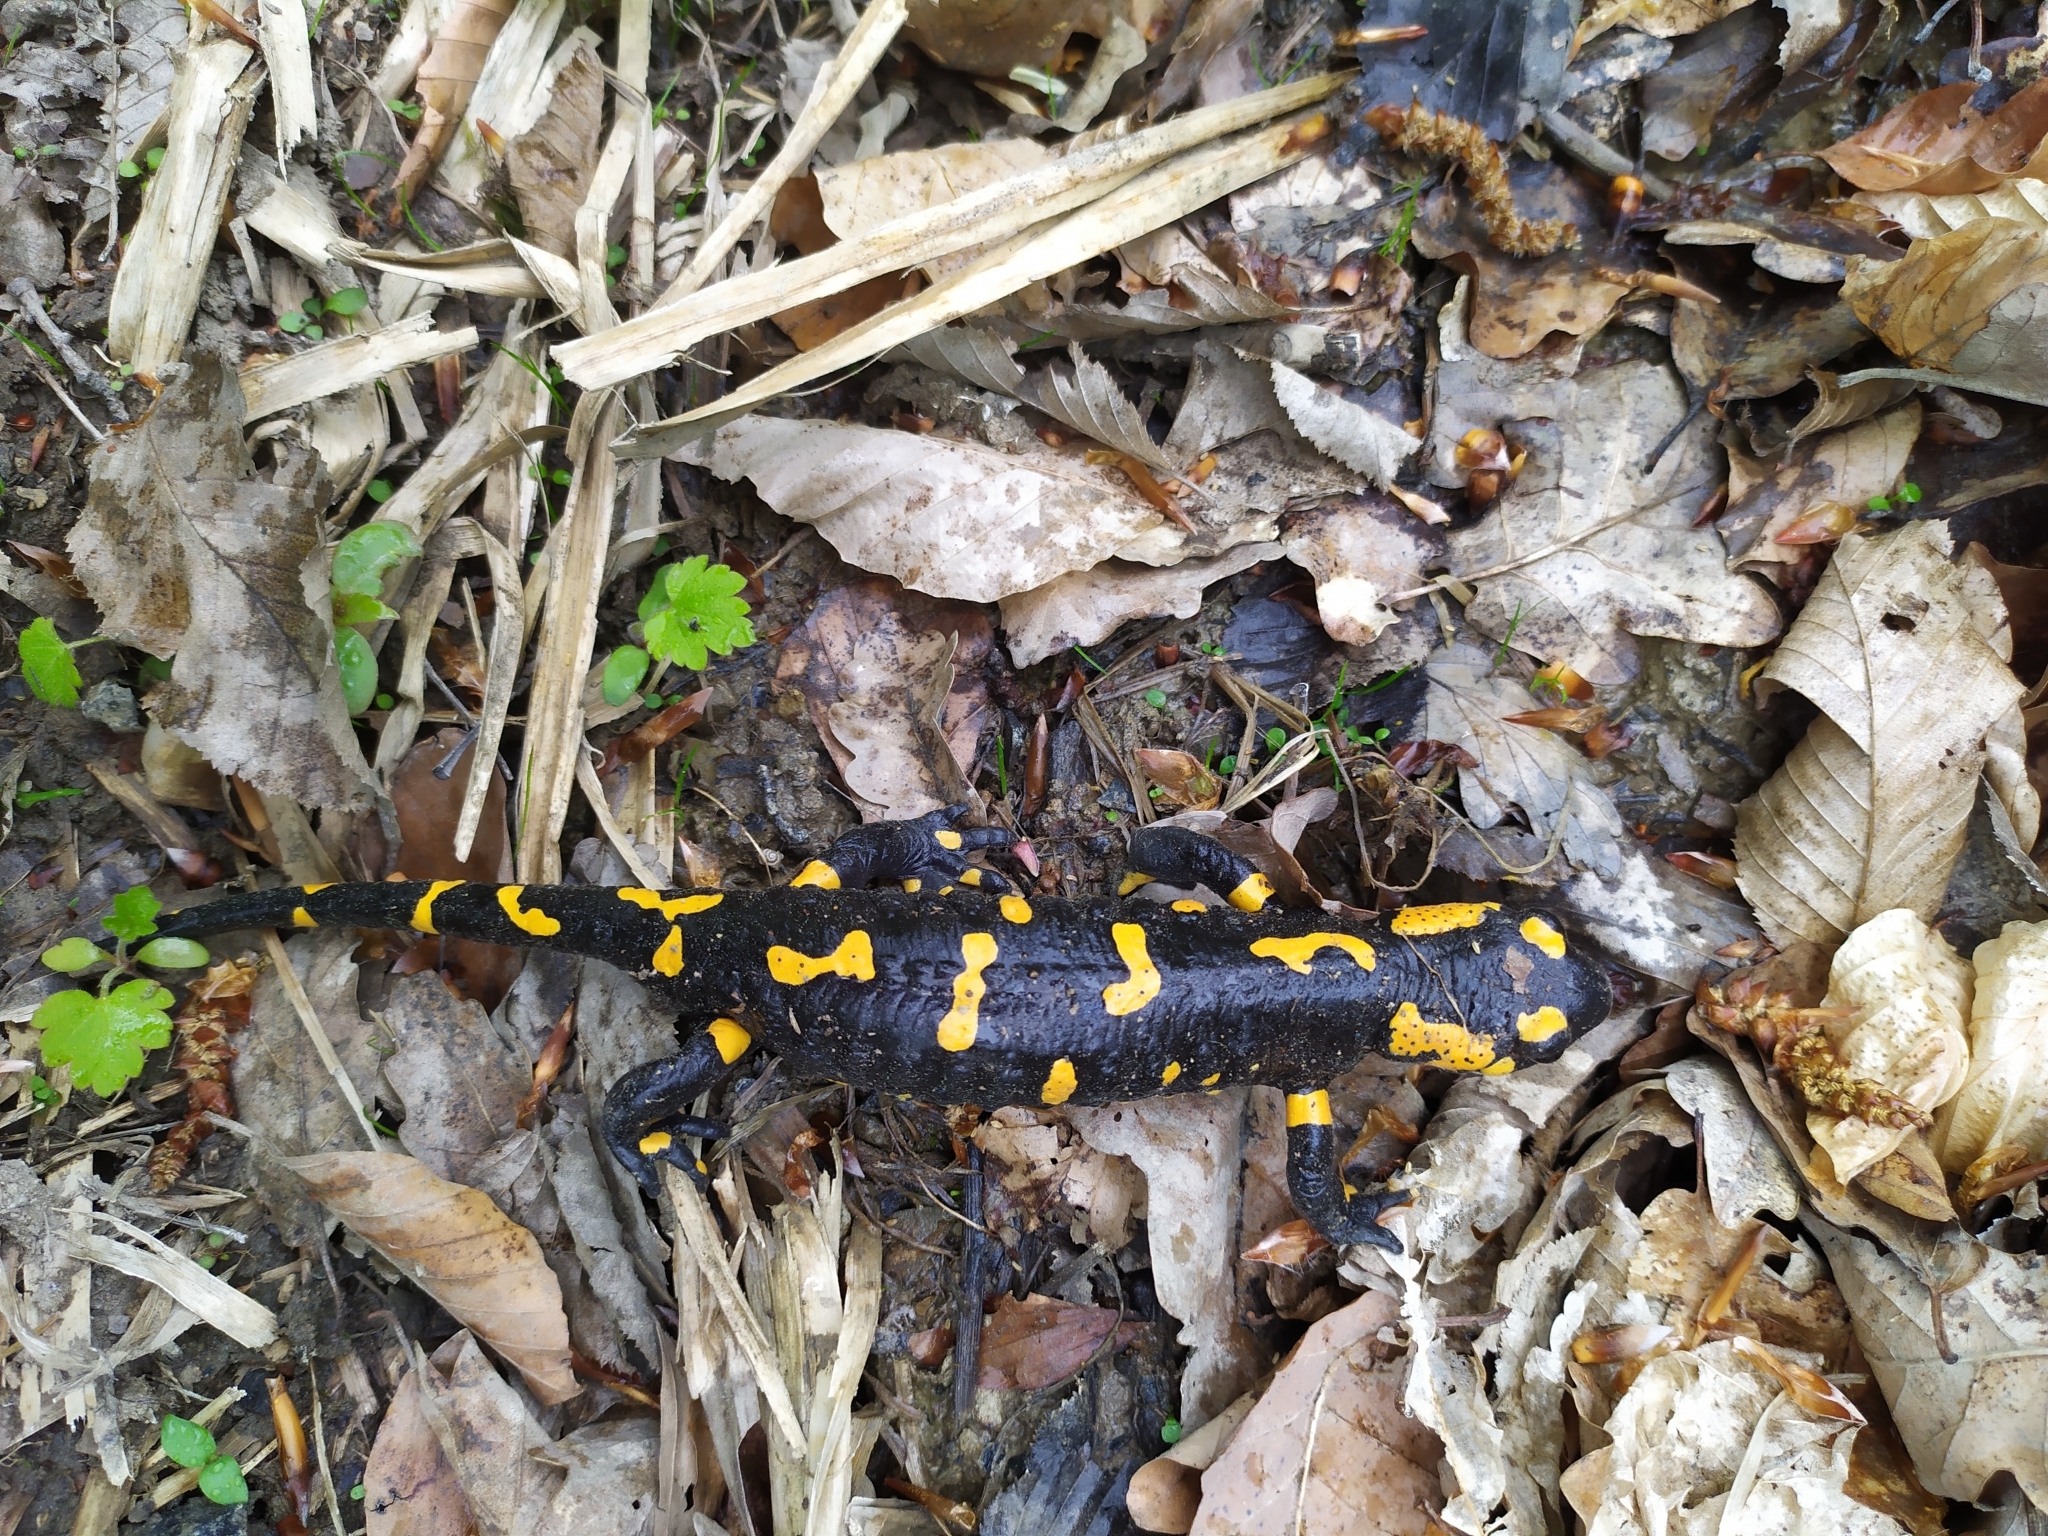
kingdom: Animalia
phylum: Chordata
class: Amphibia
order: Caudata
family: Salamandridae
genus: Salamandra
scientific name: Salamandra salamandra
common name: Fire salamander
